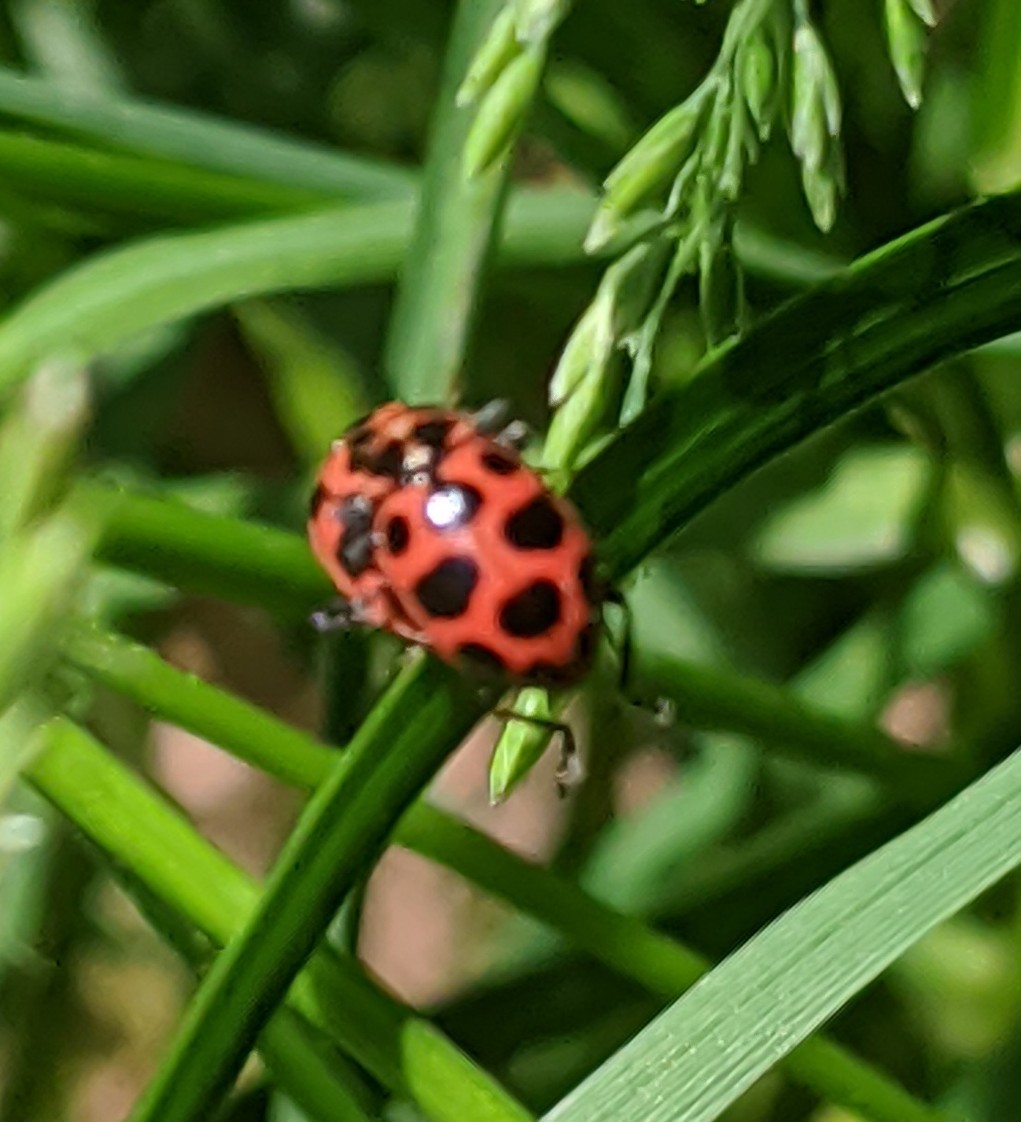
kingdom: Animalia
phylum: Arthropoda
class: Insecta
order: Coleoptera
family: Coccinellidae
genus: Coleomegilla
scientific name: Coleomegilla maculata
